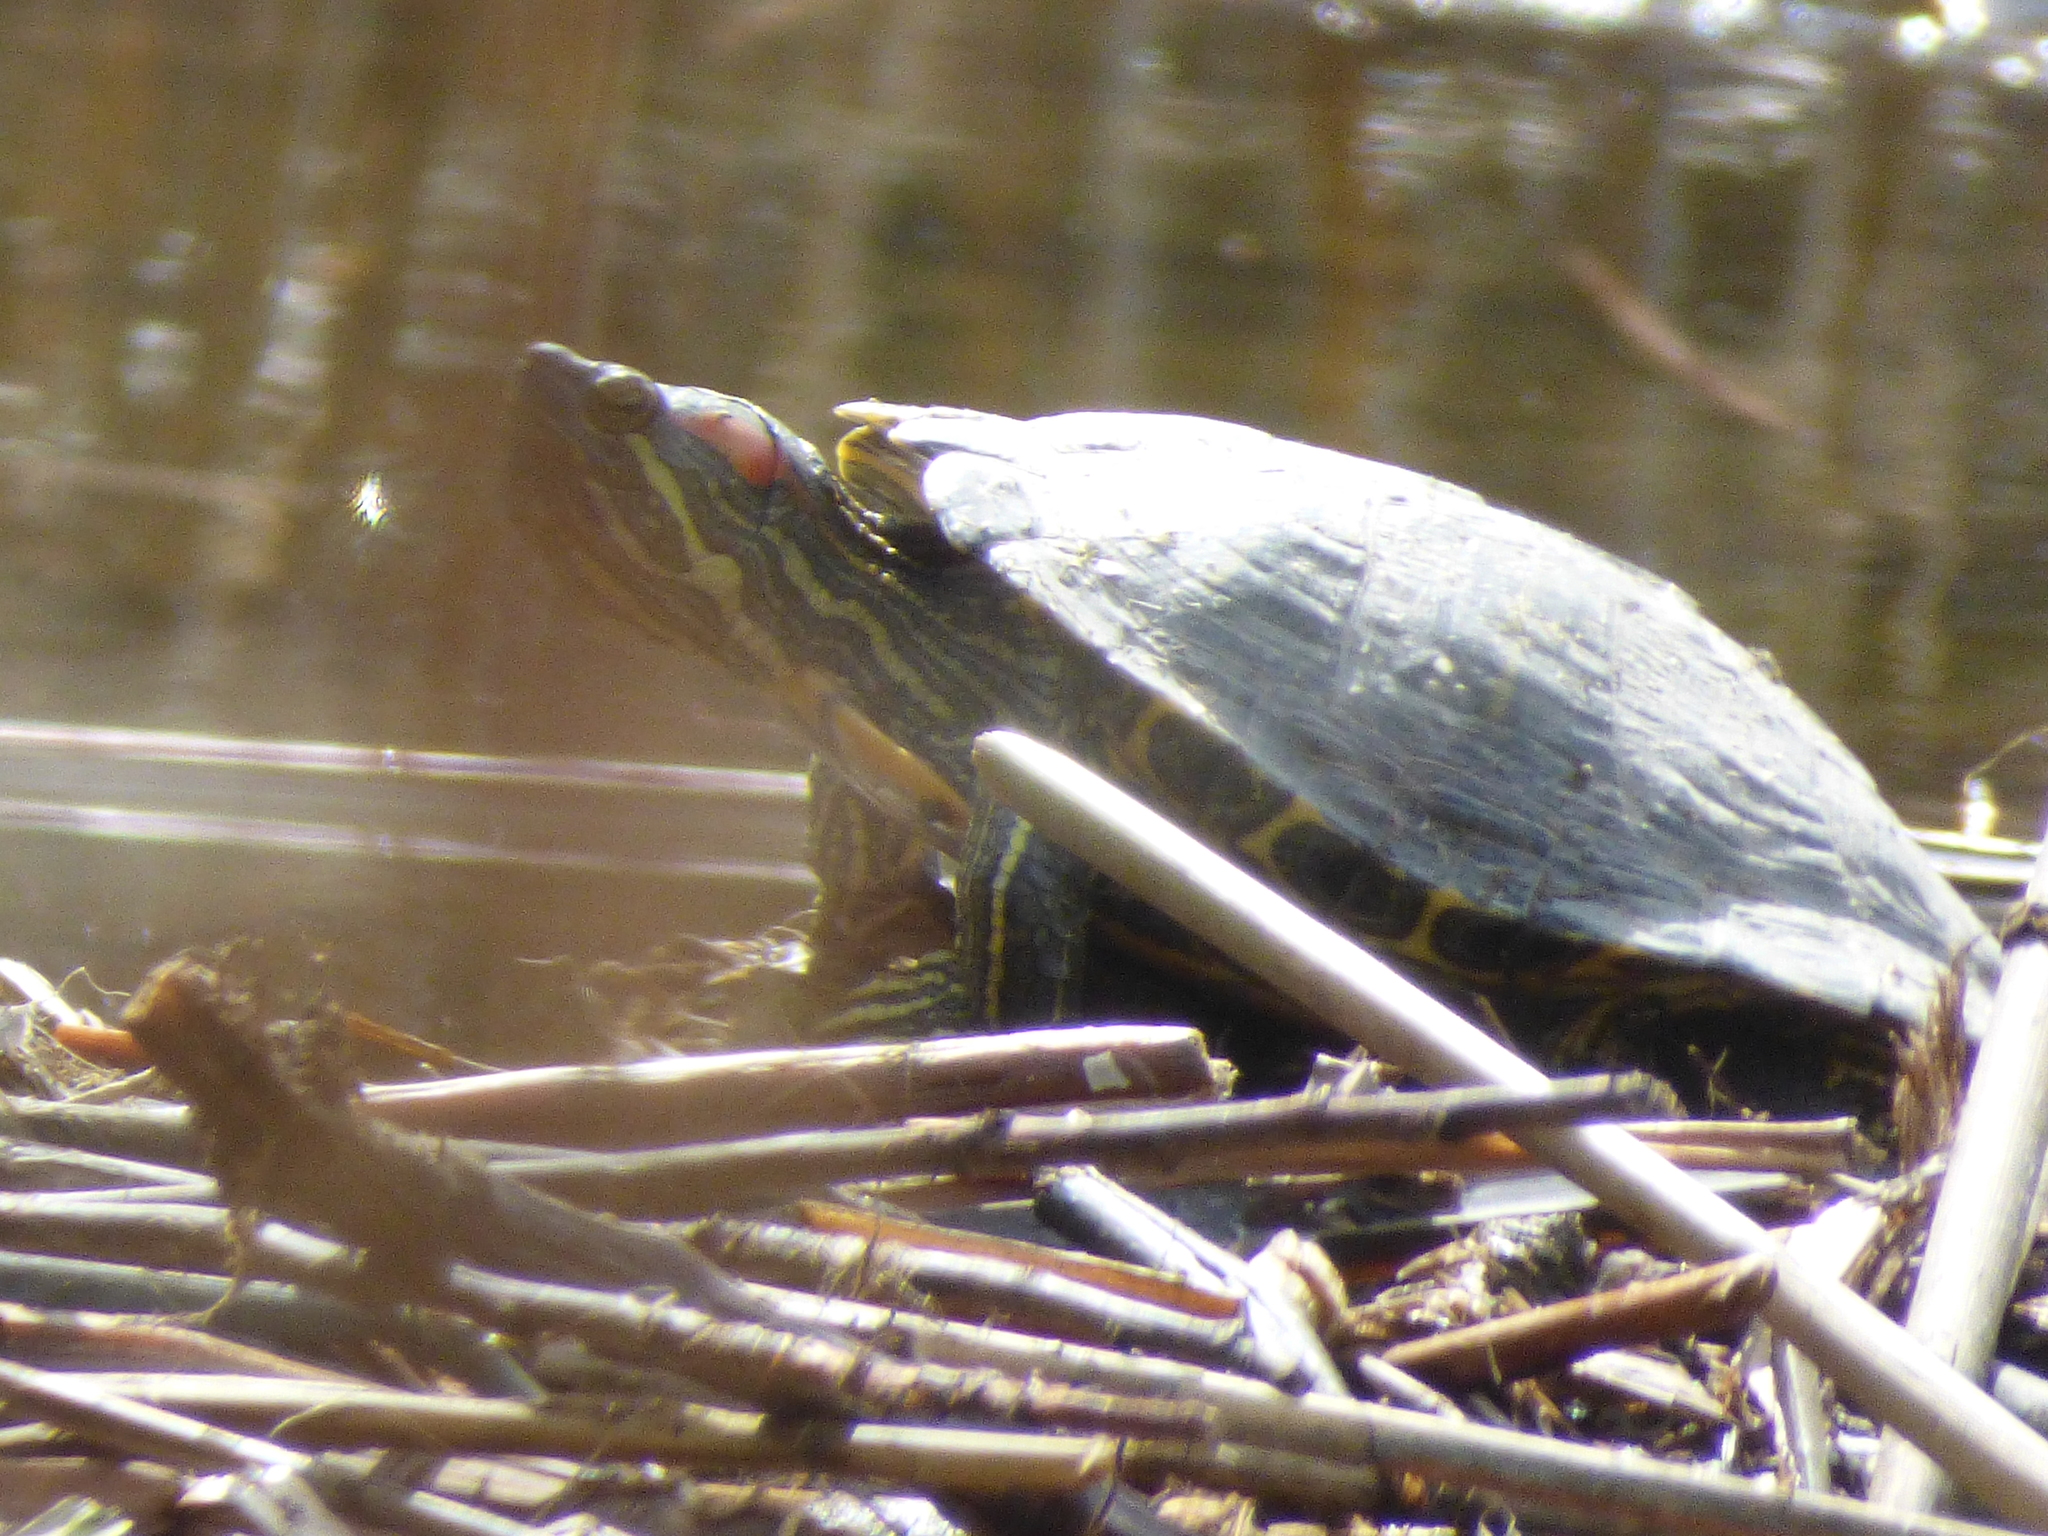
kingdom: Animalia
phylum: Chordata
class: Testudines
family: Emydidae
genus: Trachemys
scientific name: Trachemys scripta
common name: Slider
